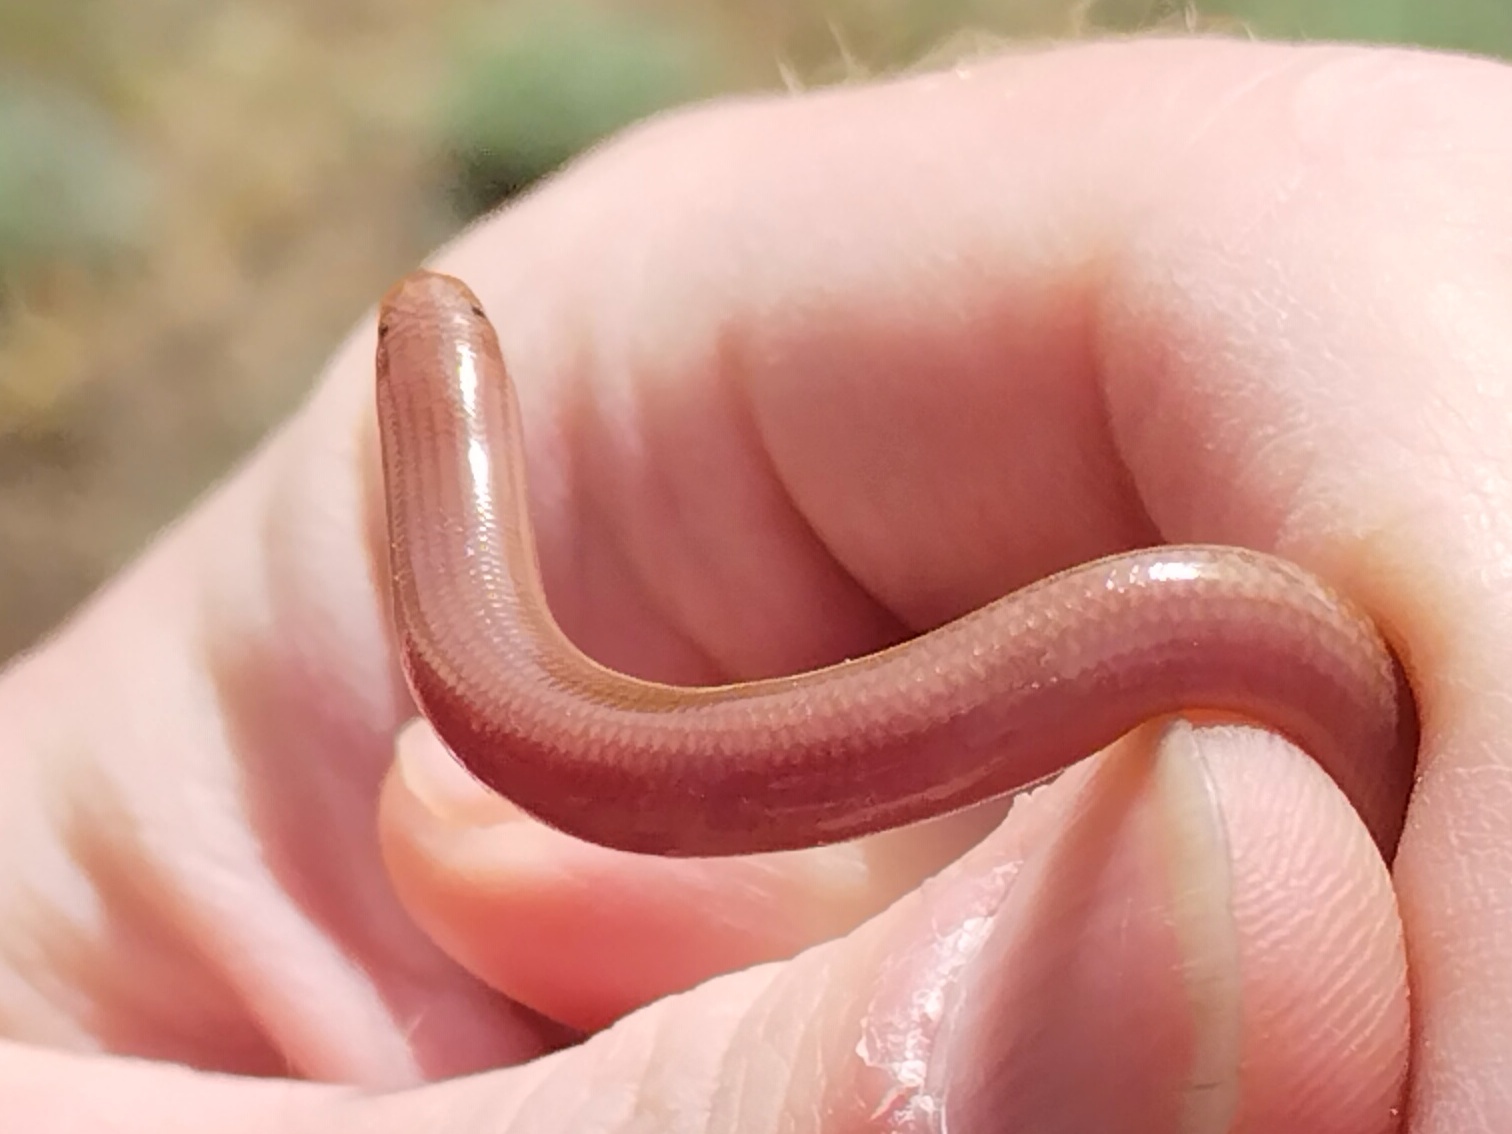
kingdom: Animalia
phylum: Chordata
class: Squamata
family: Typhlopidae
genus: Xerotyphlops
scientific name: Xerotyphlops vermicularis
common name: Eurasian blind snake
